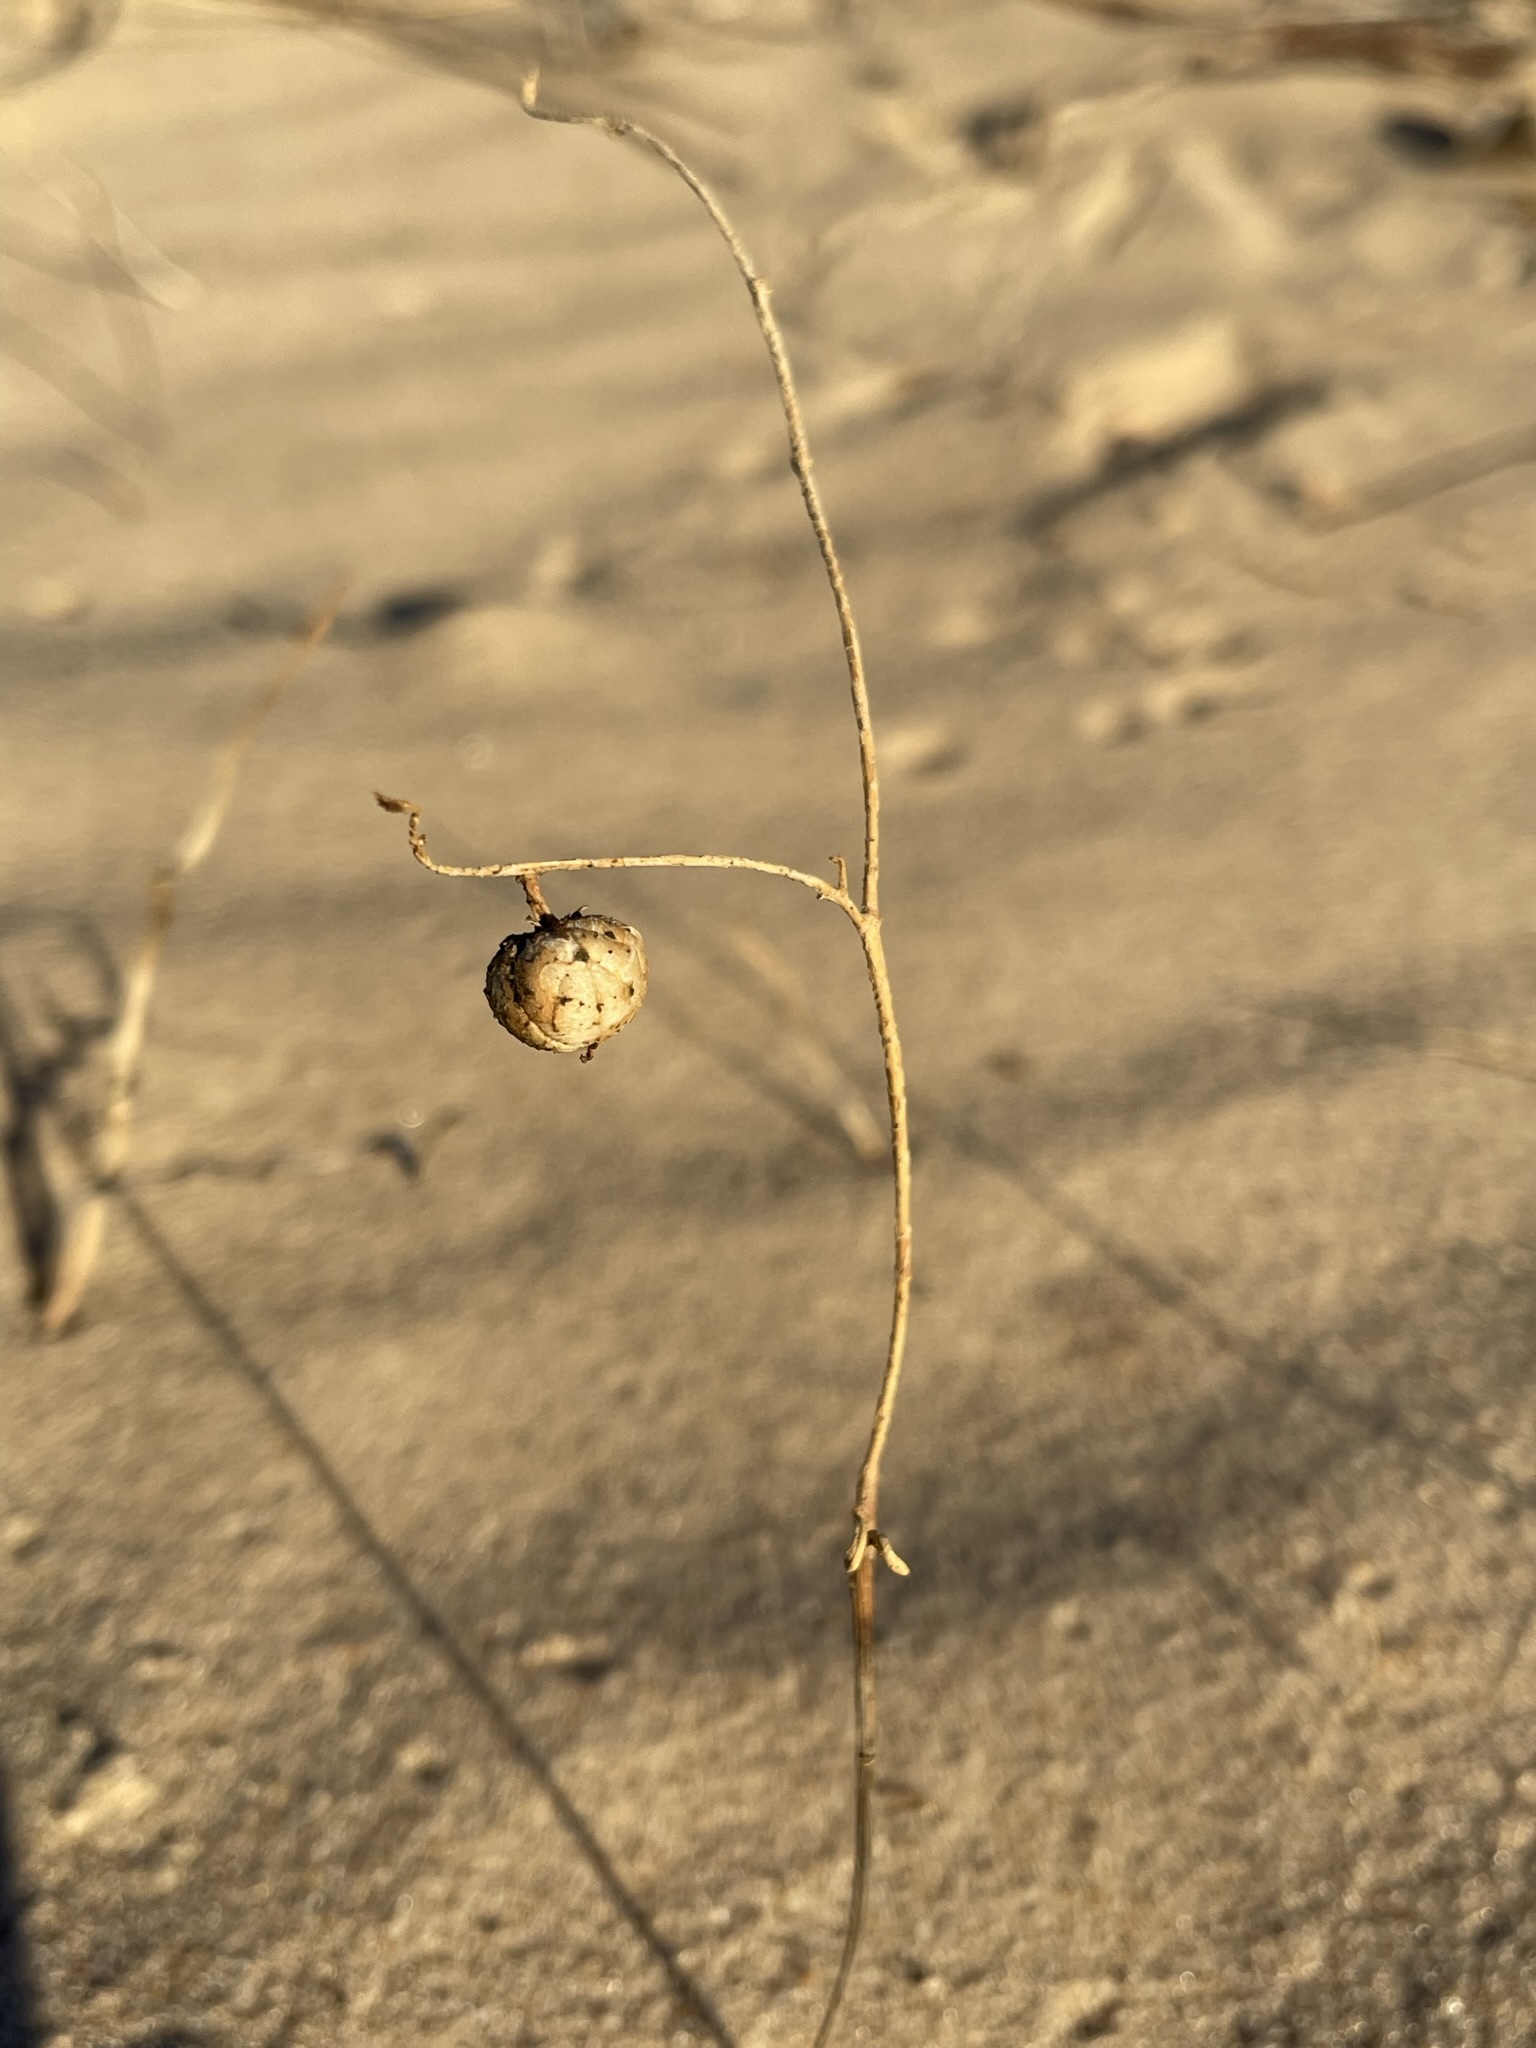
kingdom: Plantae
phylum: Tracheophyta
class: Magnoliopsida
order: Malpighiales
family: Phyllanthaceae
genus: Phyllanthus
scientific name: Phyllanthus warnockii
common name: Sand reverchonia
